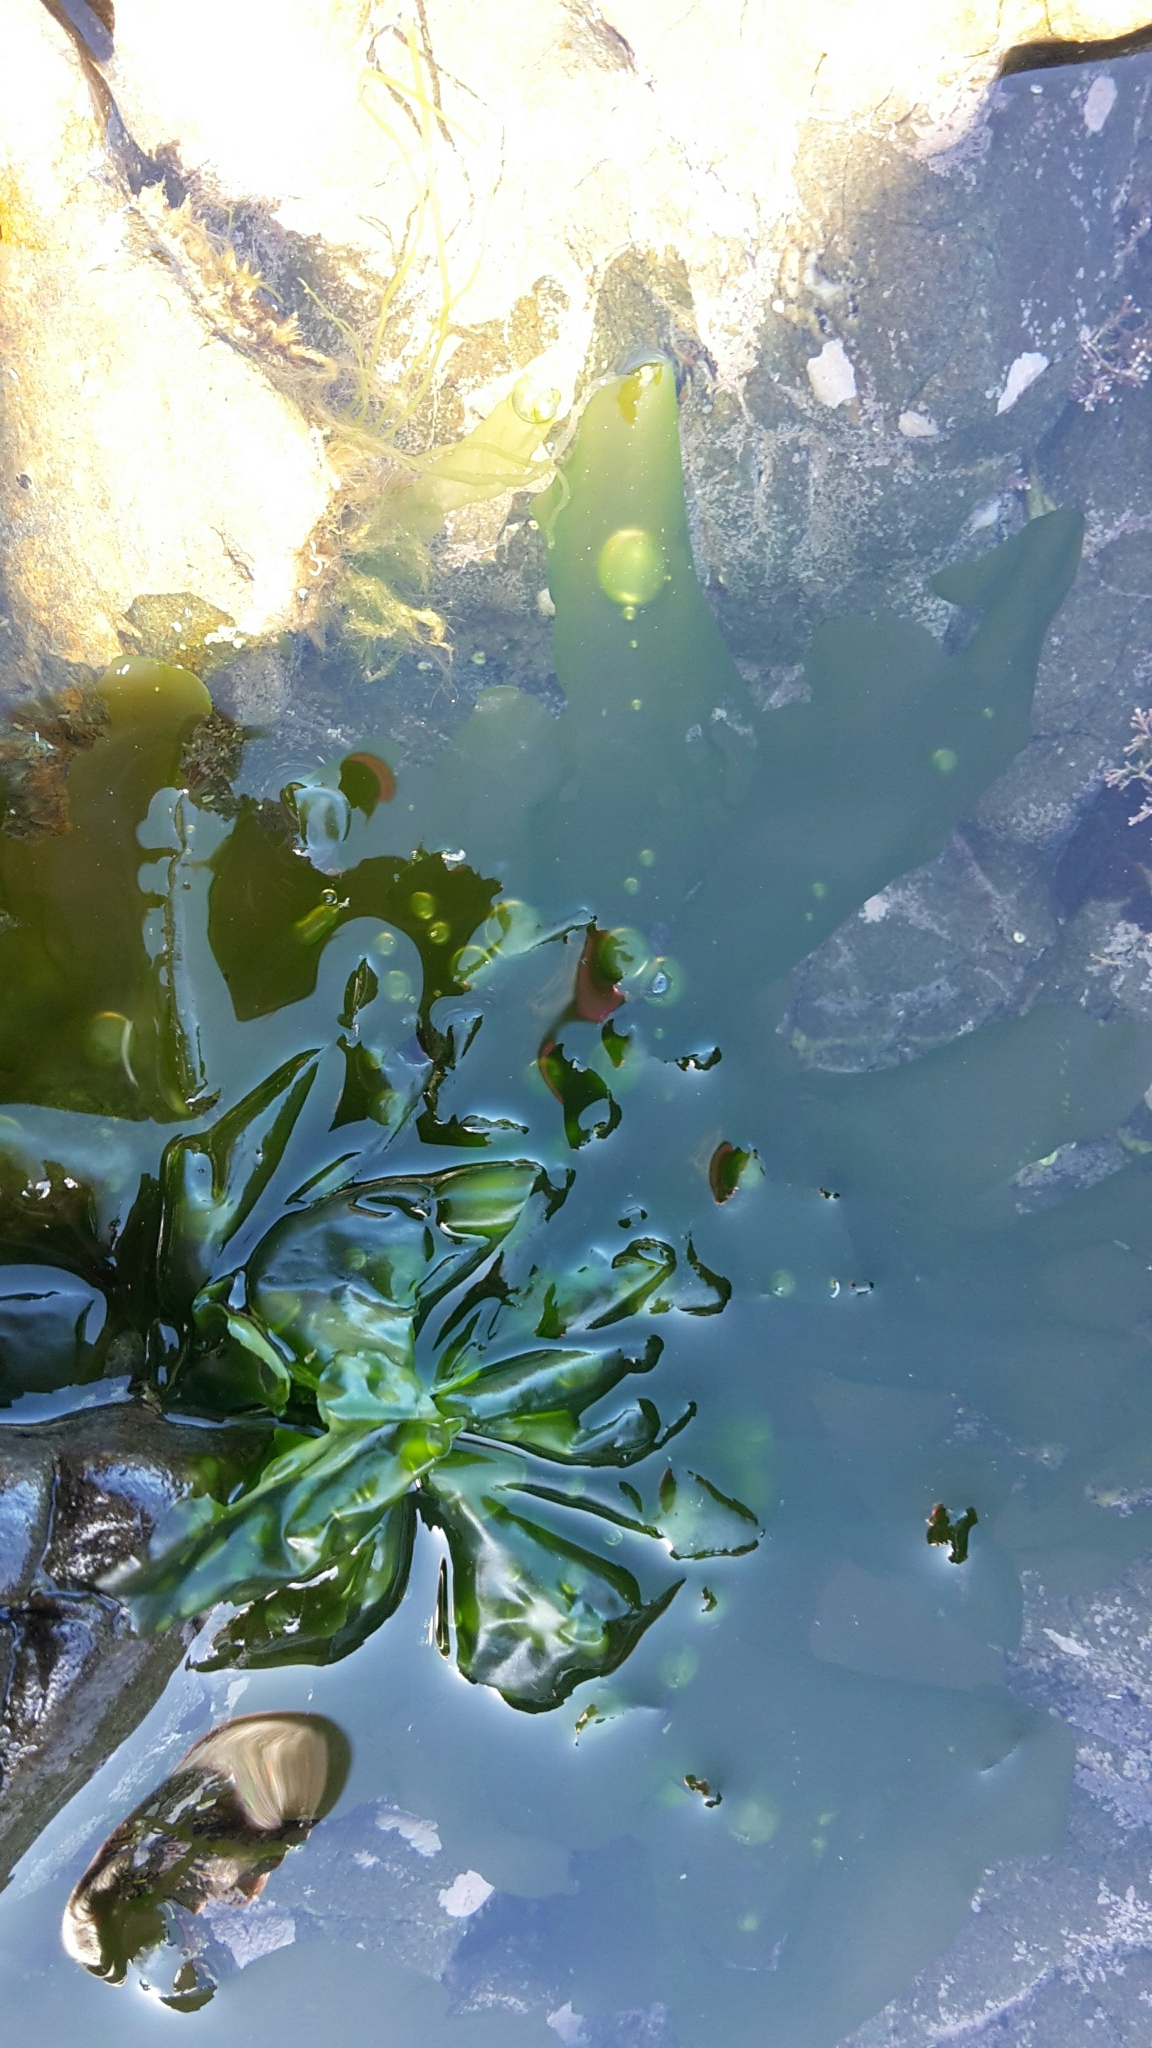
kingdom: Plantae
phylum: Chlorophyta
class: Ulvophyceae
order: Ulvales
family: Ulvaceae
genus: Ulva
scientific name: Ulva
